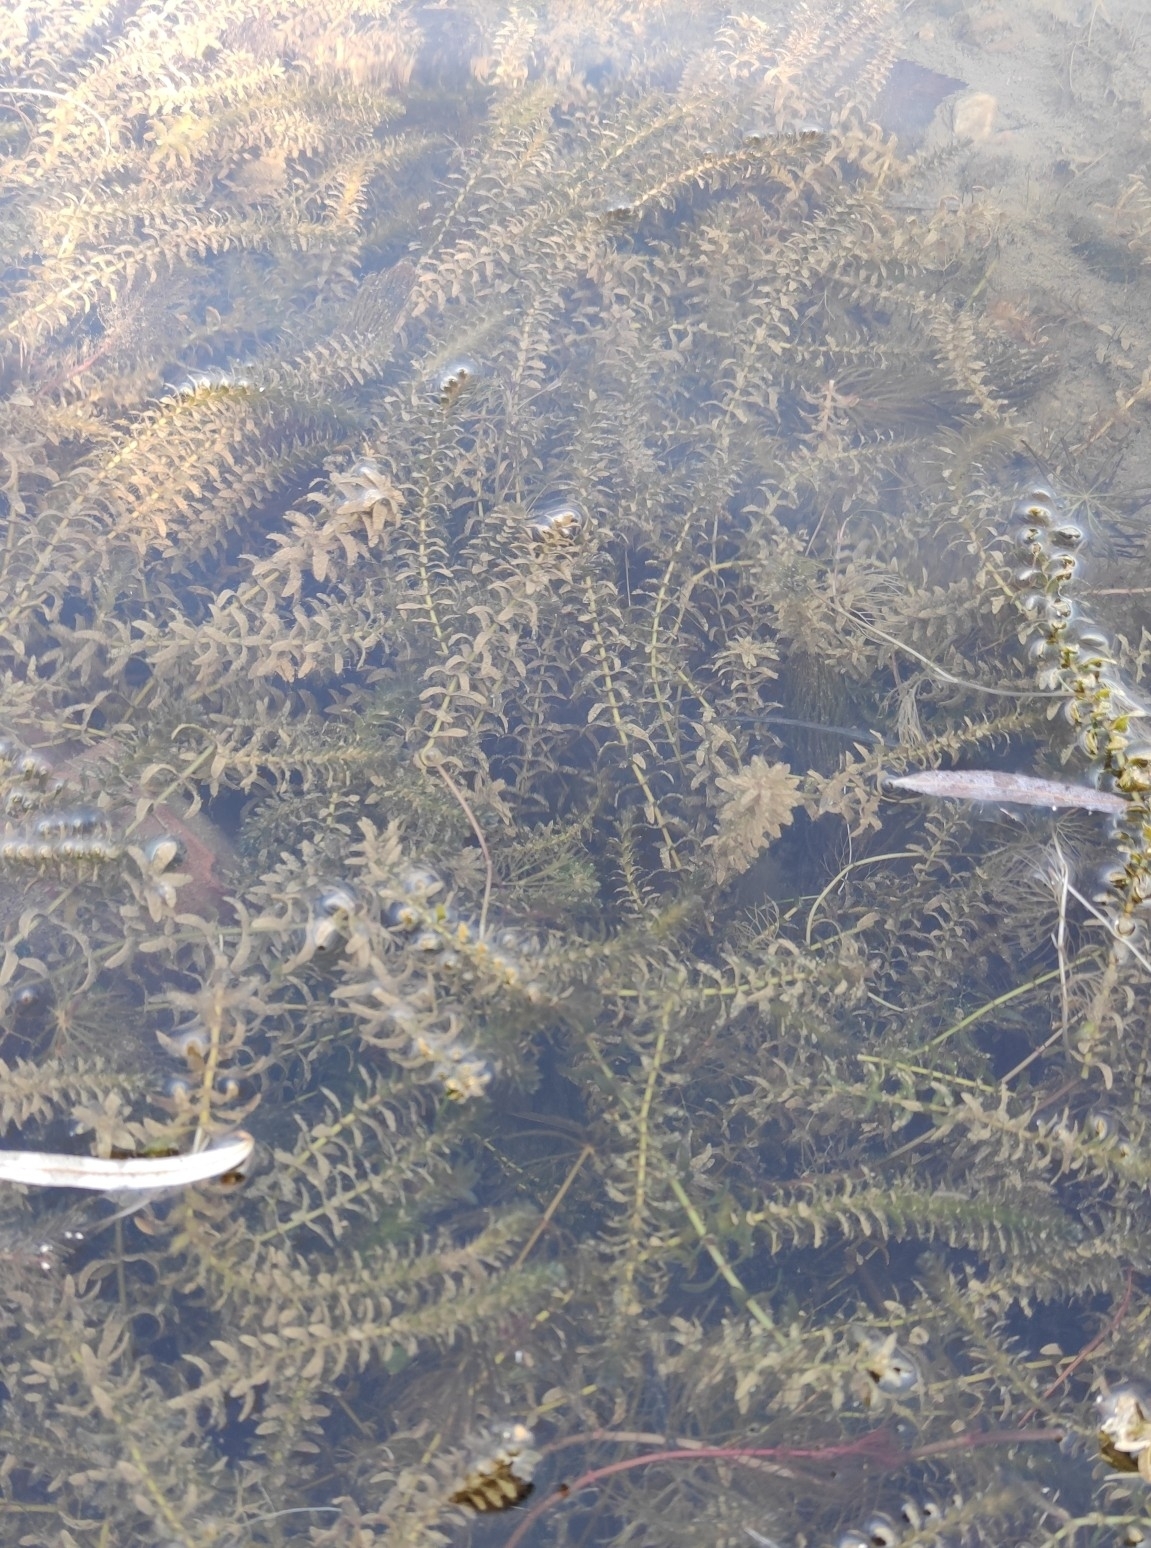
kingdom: Plantae
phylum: Tracheophyta
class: Liliopsida
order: Alismatales
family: Hydrocharitaceae
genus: Elodea
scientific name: Elodea canadensis
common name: Canadian waterweed
